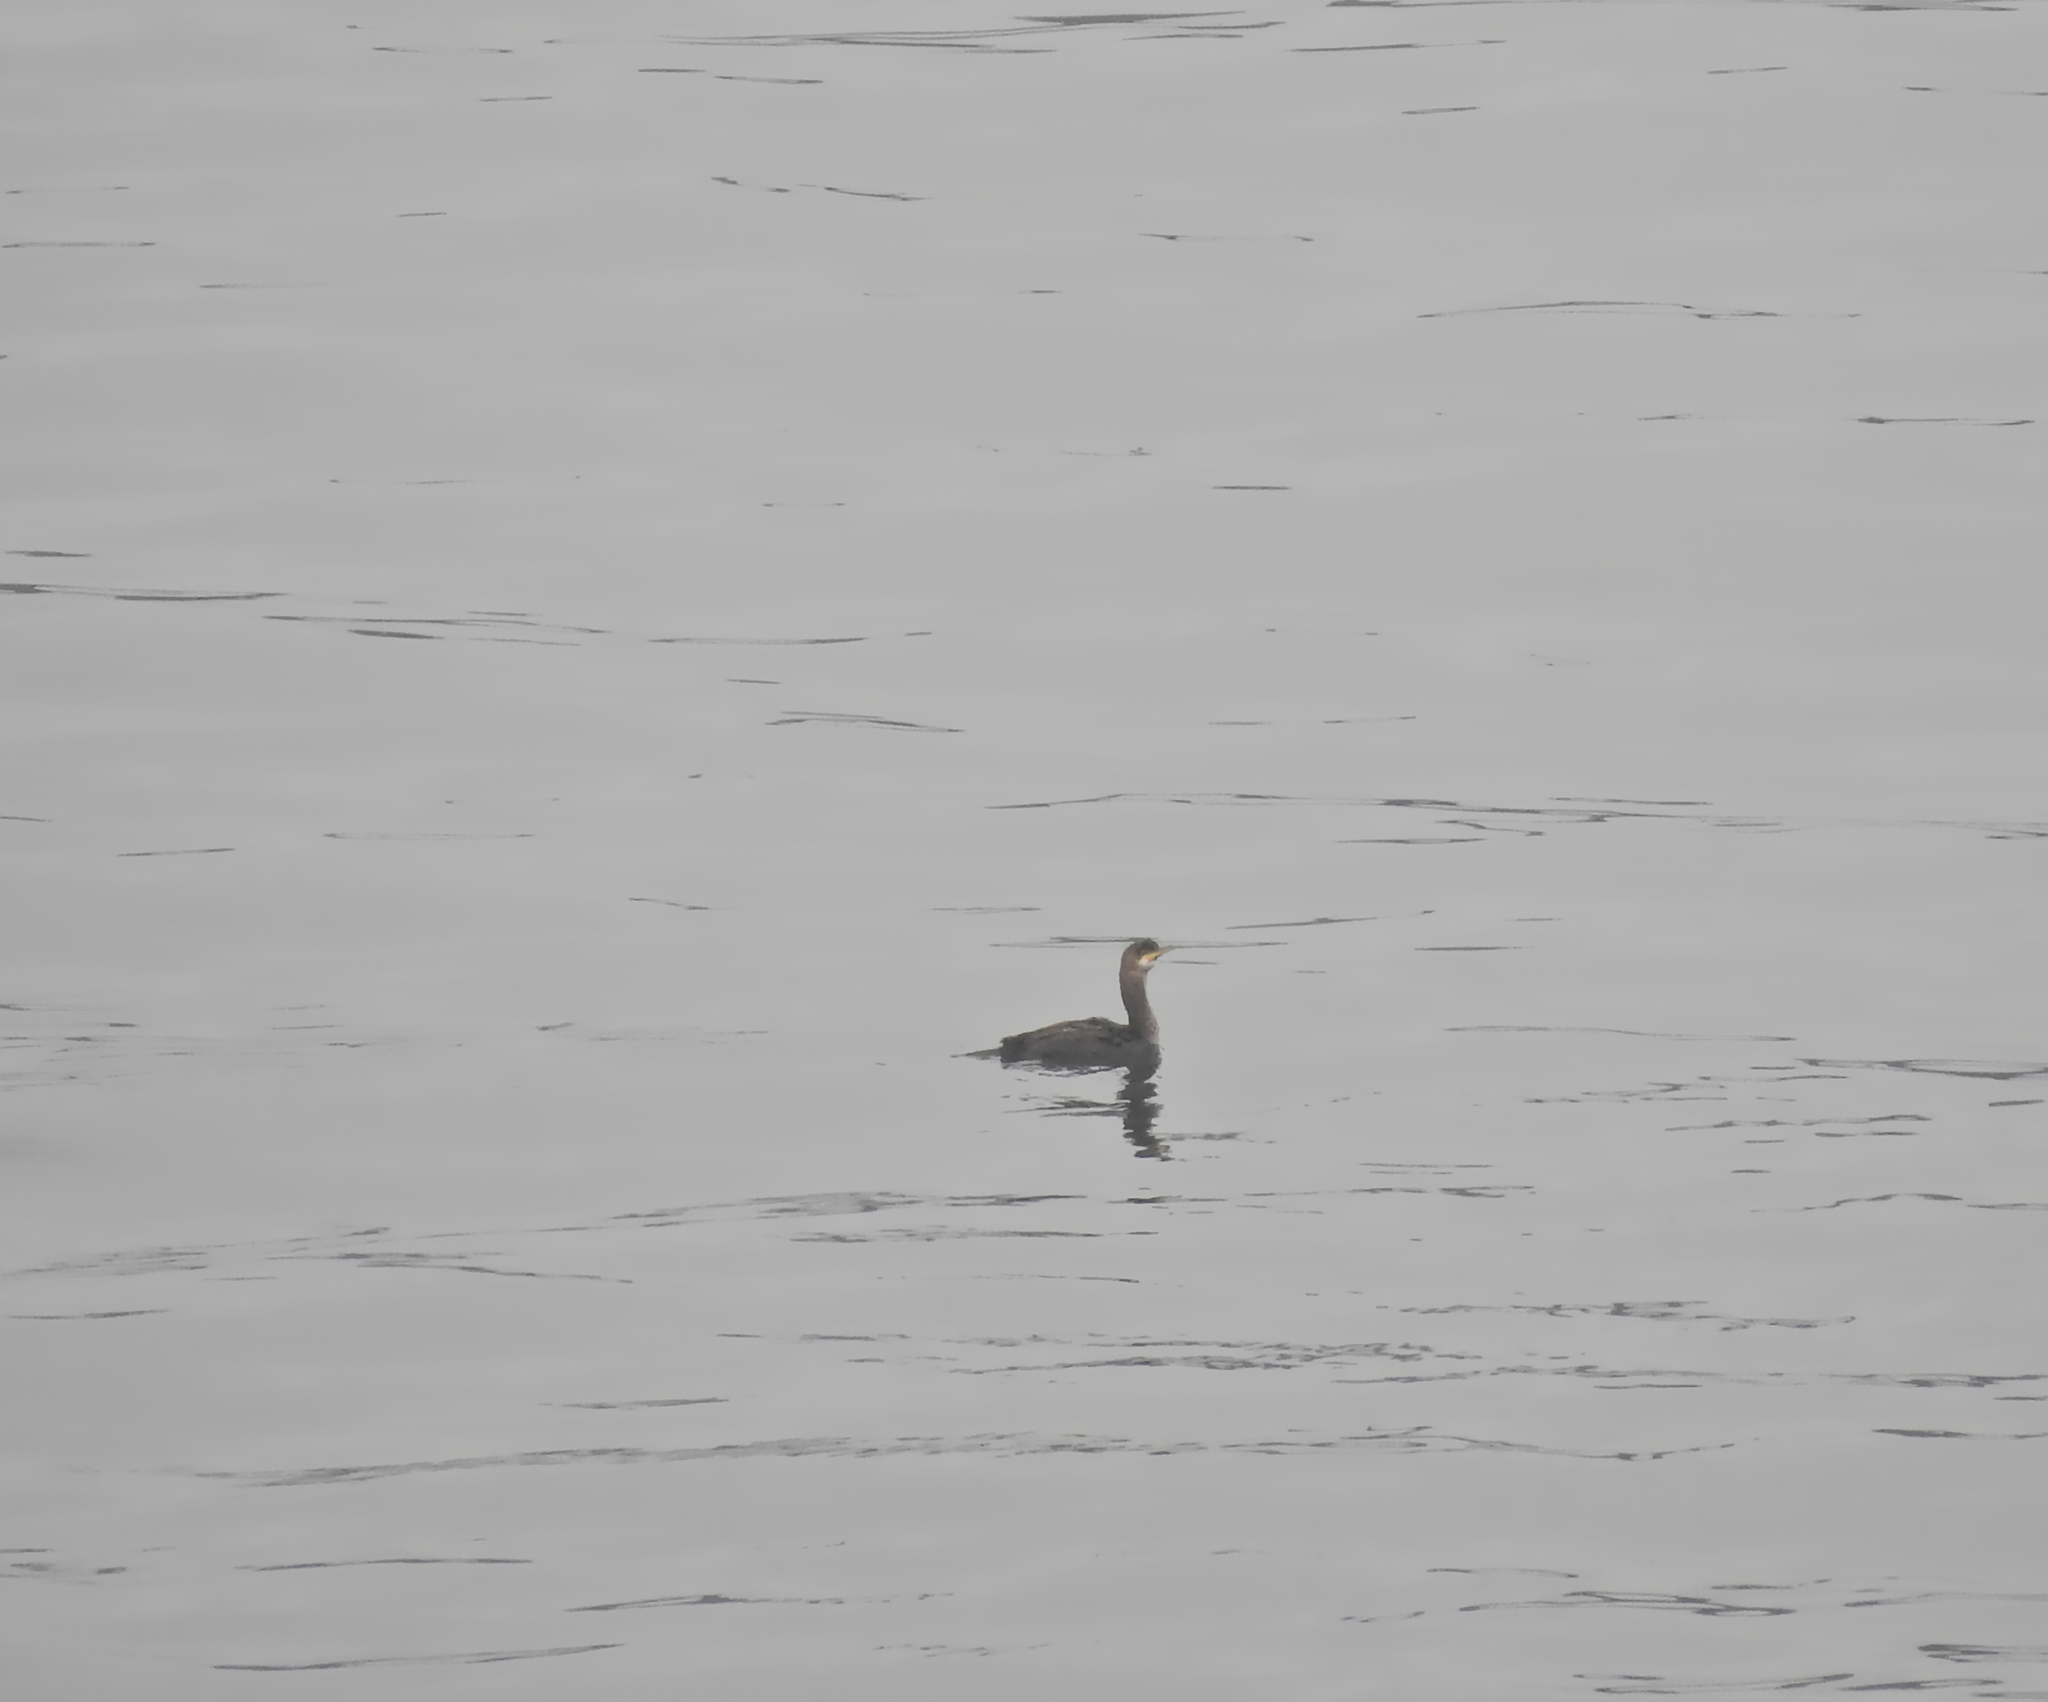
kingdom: Animalia
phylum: Chordata
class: Aves
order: Suliformes
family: Phalacrocoracidae
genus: Phalacrocorax
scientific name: Phalacrocorax carbo
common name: Great cormorant
